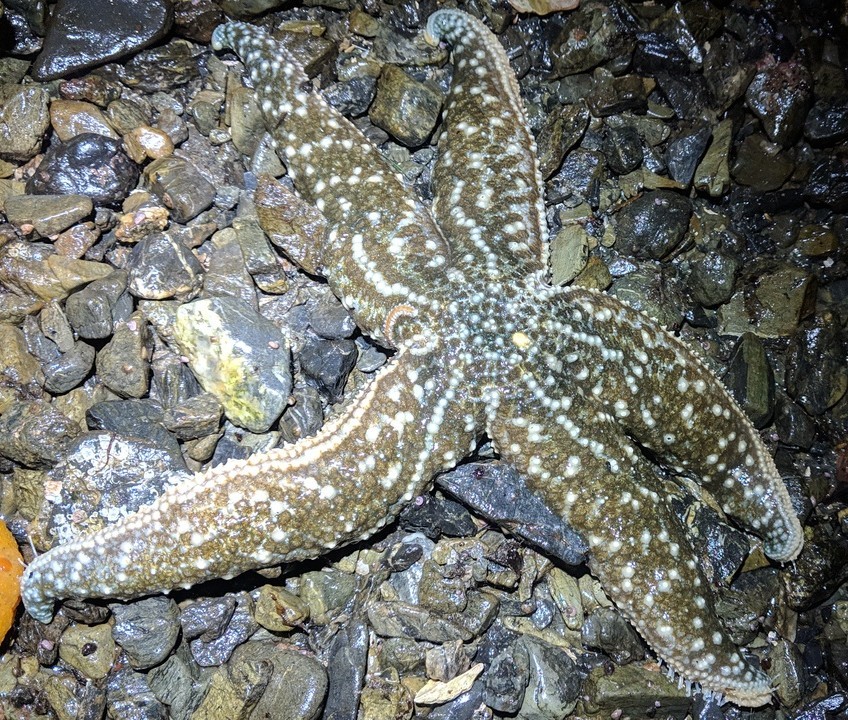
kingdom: Animalia
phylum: Echinodermata
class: Asteroidea
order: Forcipulatida
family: Asteriidae
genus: Evasterias
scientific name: Evasterias troschelii
